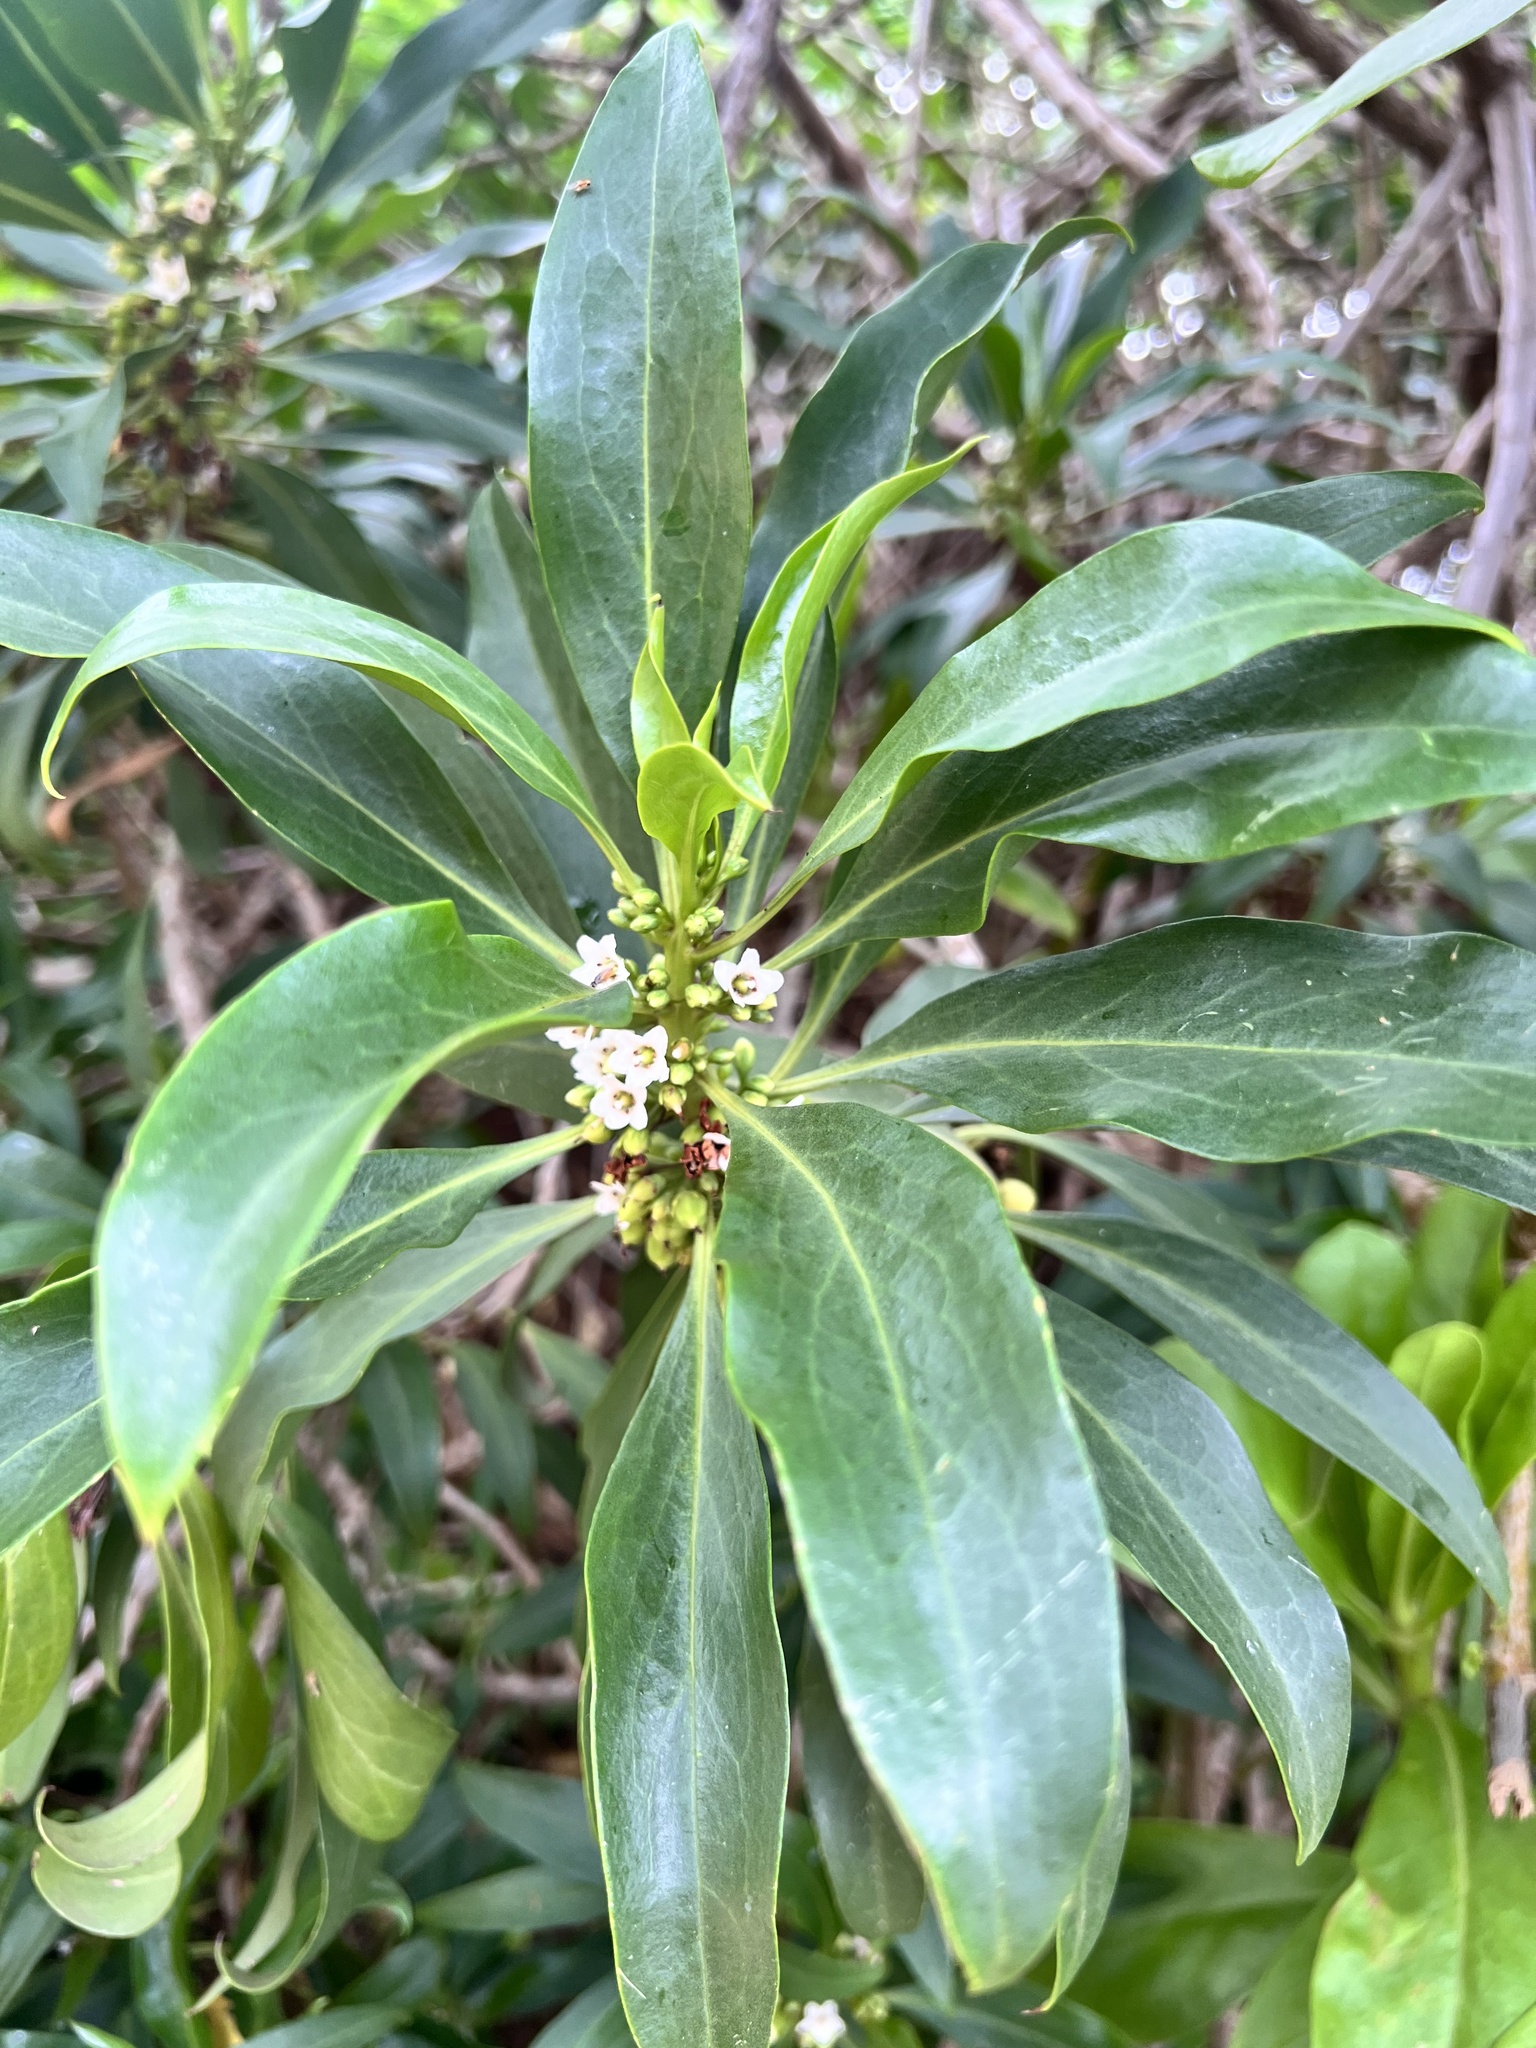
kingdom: Plantae
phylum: Tracheophyta
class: Magnoliopsida
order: Lamiales
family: Scrophulariaceae
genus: Myoporum
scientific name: Myoporum sandwicense
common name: Bastard-sandalwood
